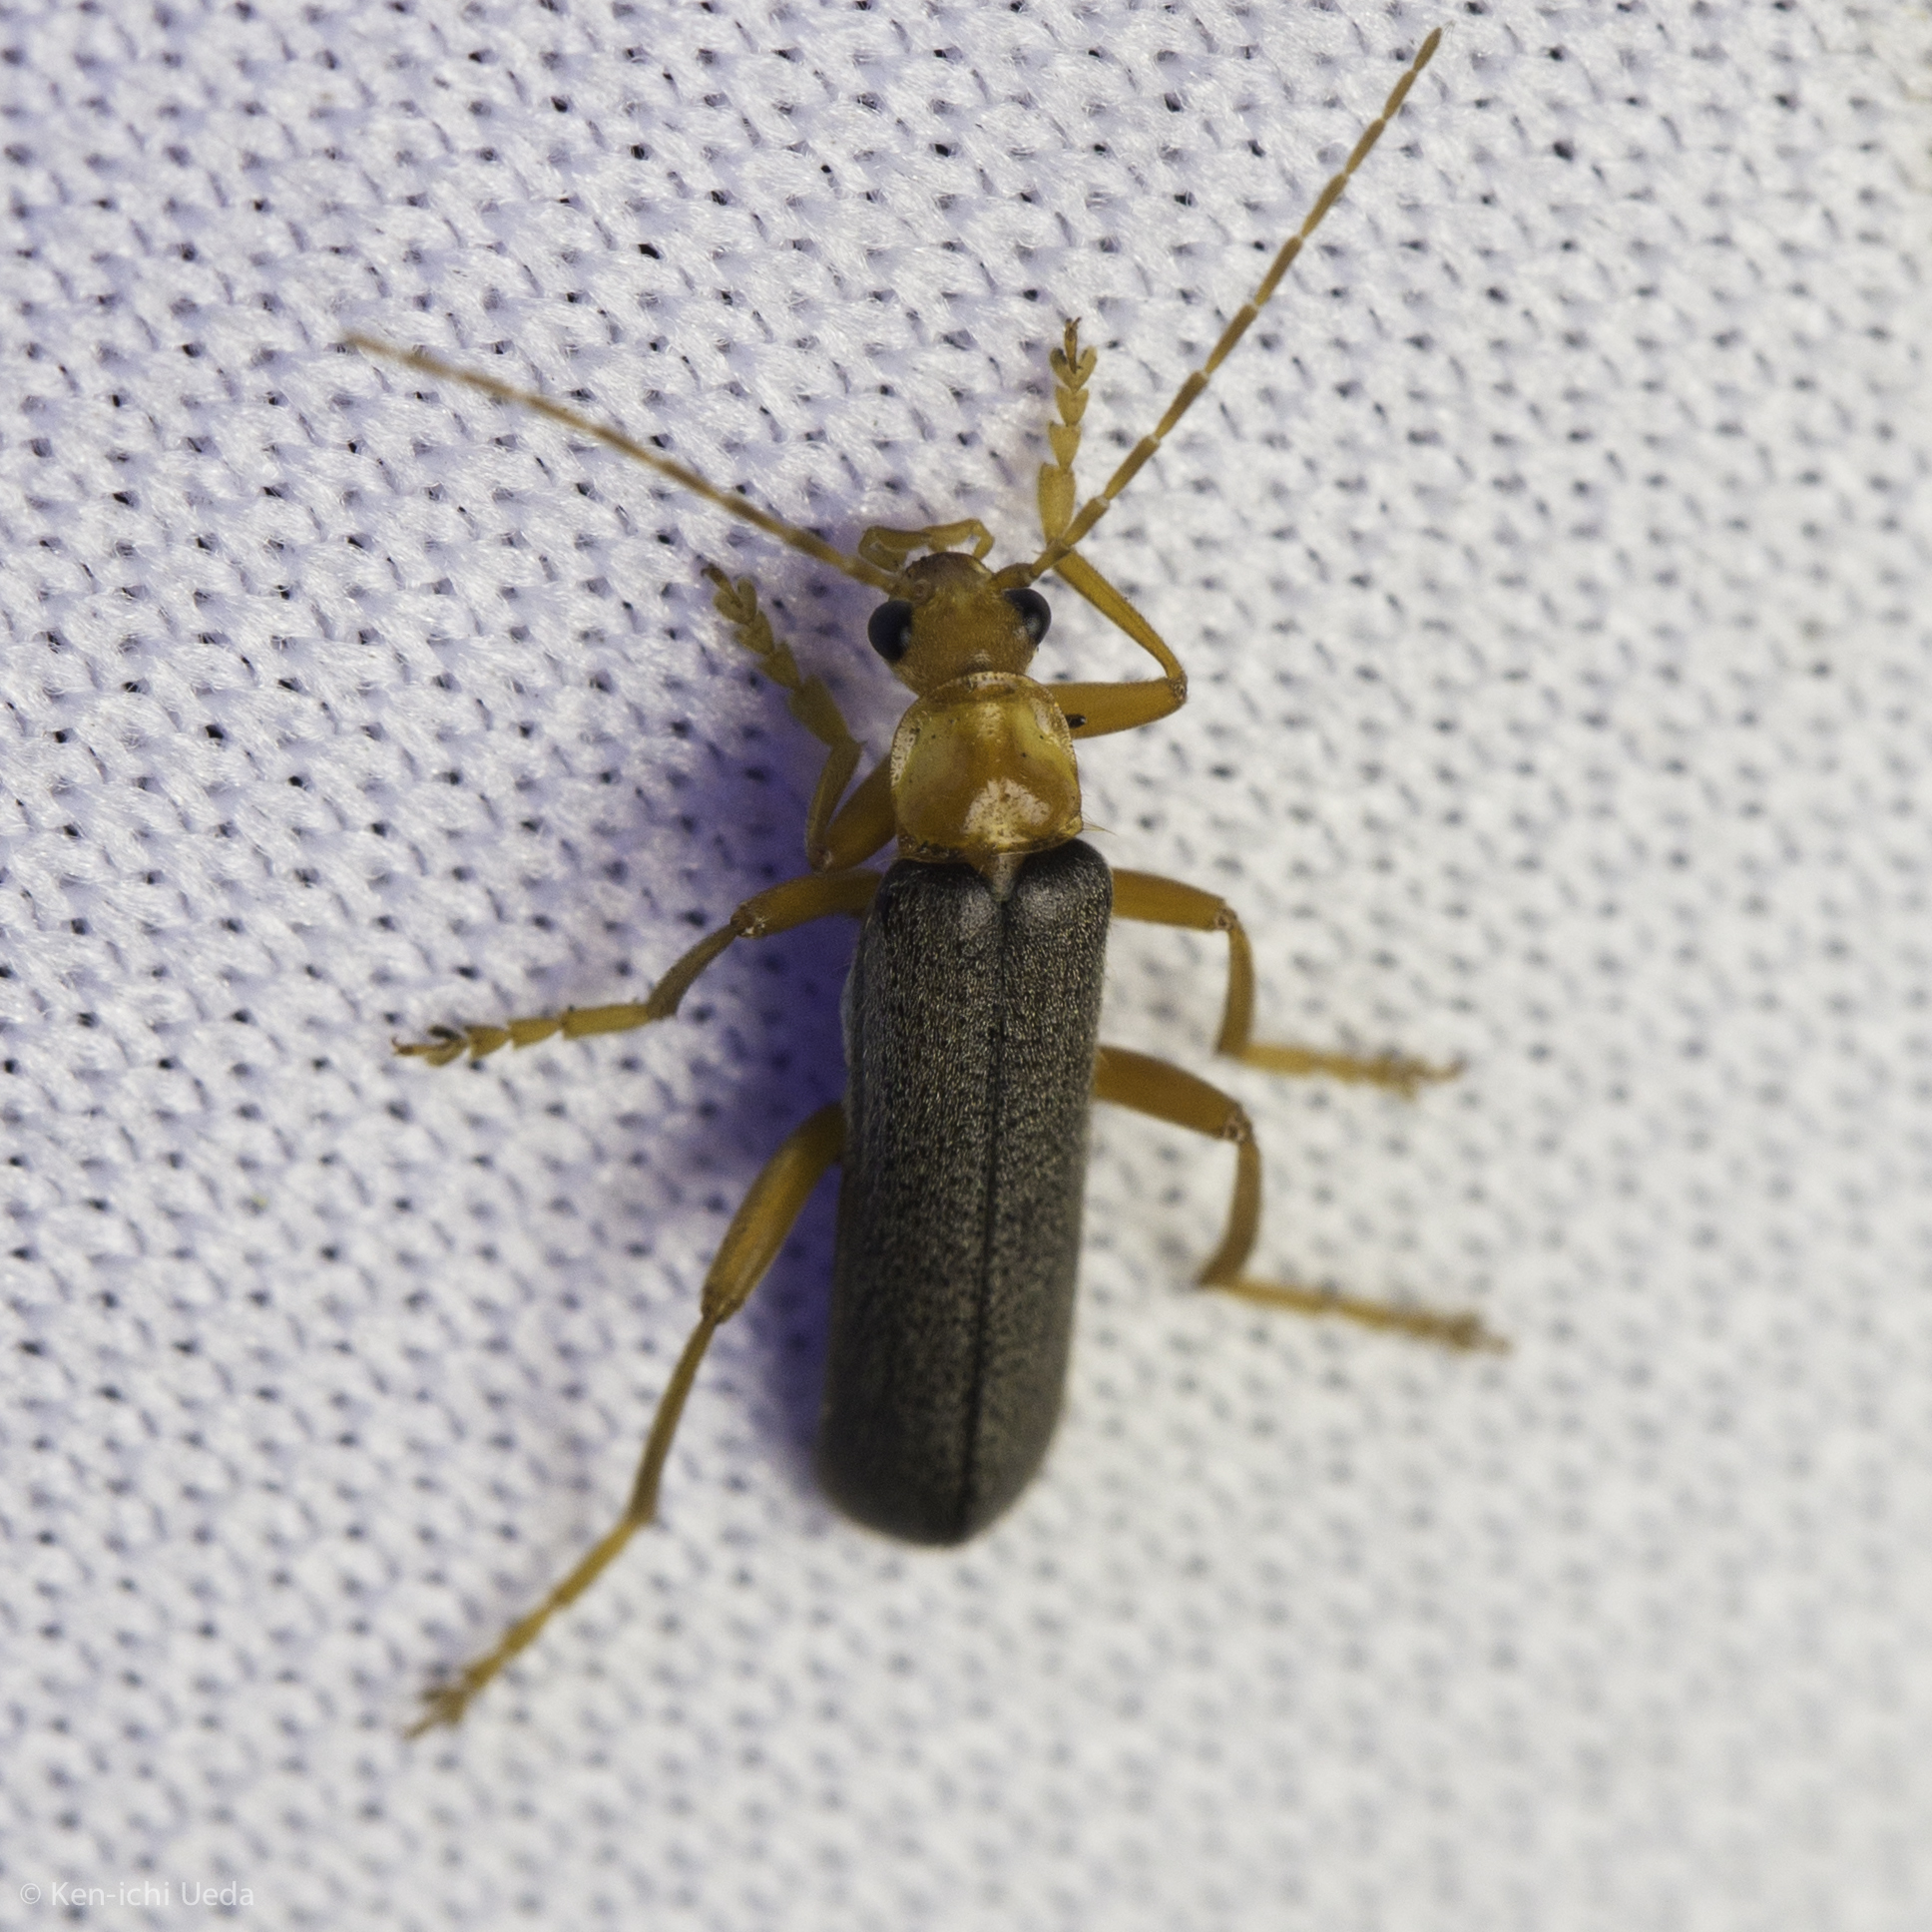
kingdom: Animalia
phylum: Arthropoda
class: Insecta
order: Coleoptera
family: Cantharidae
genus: Cultellunguis
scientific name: Cultellunguis perpallens
